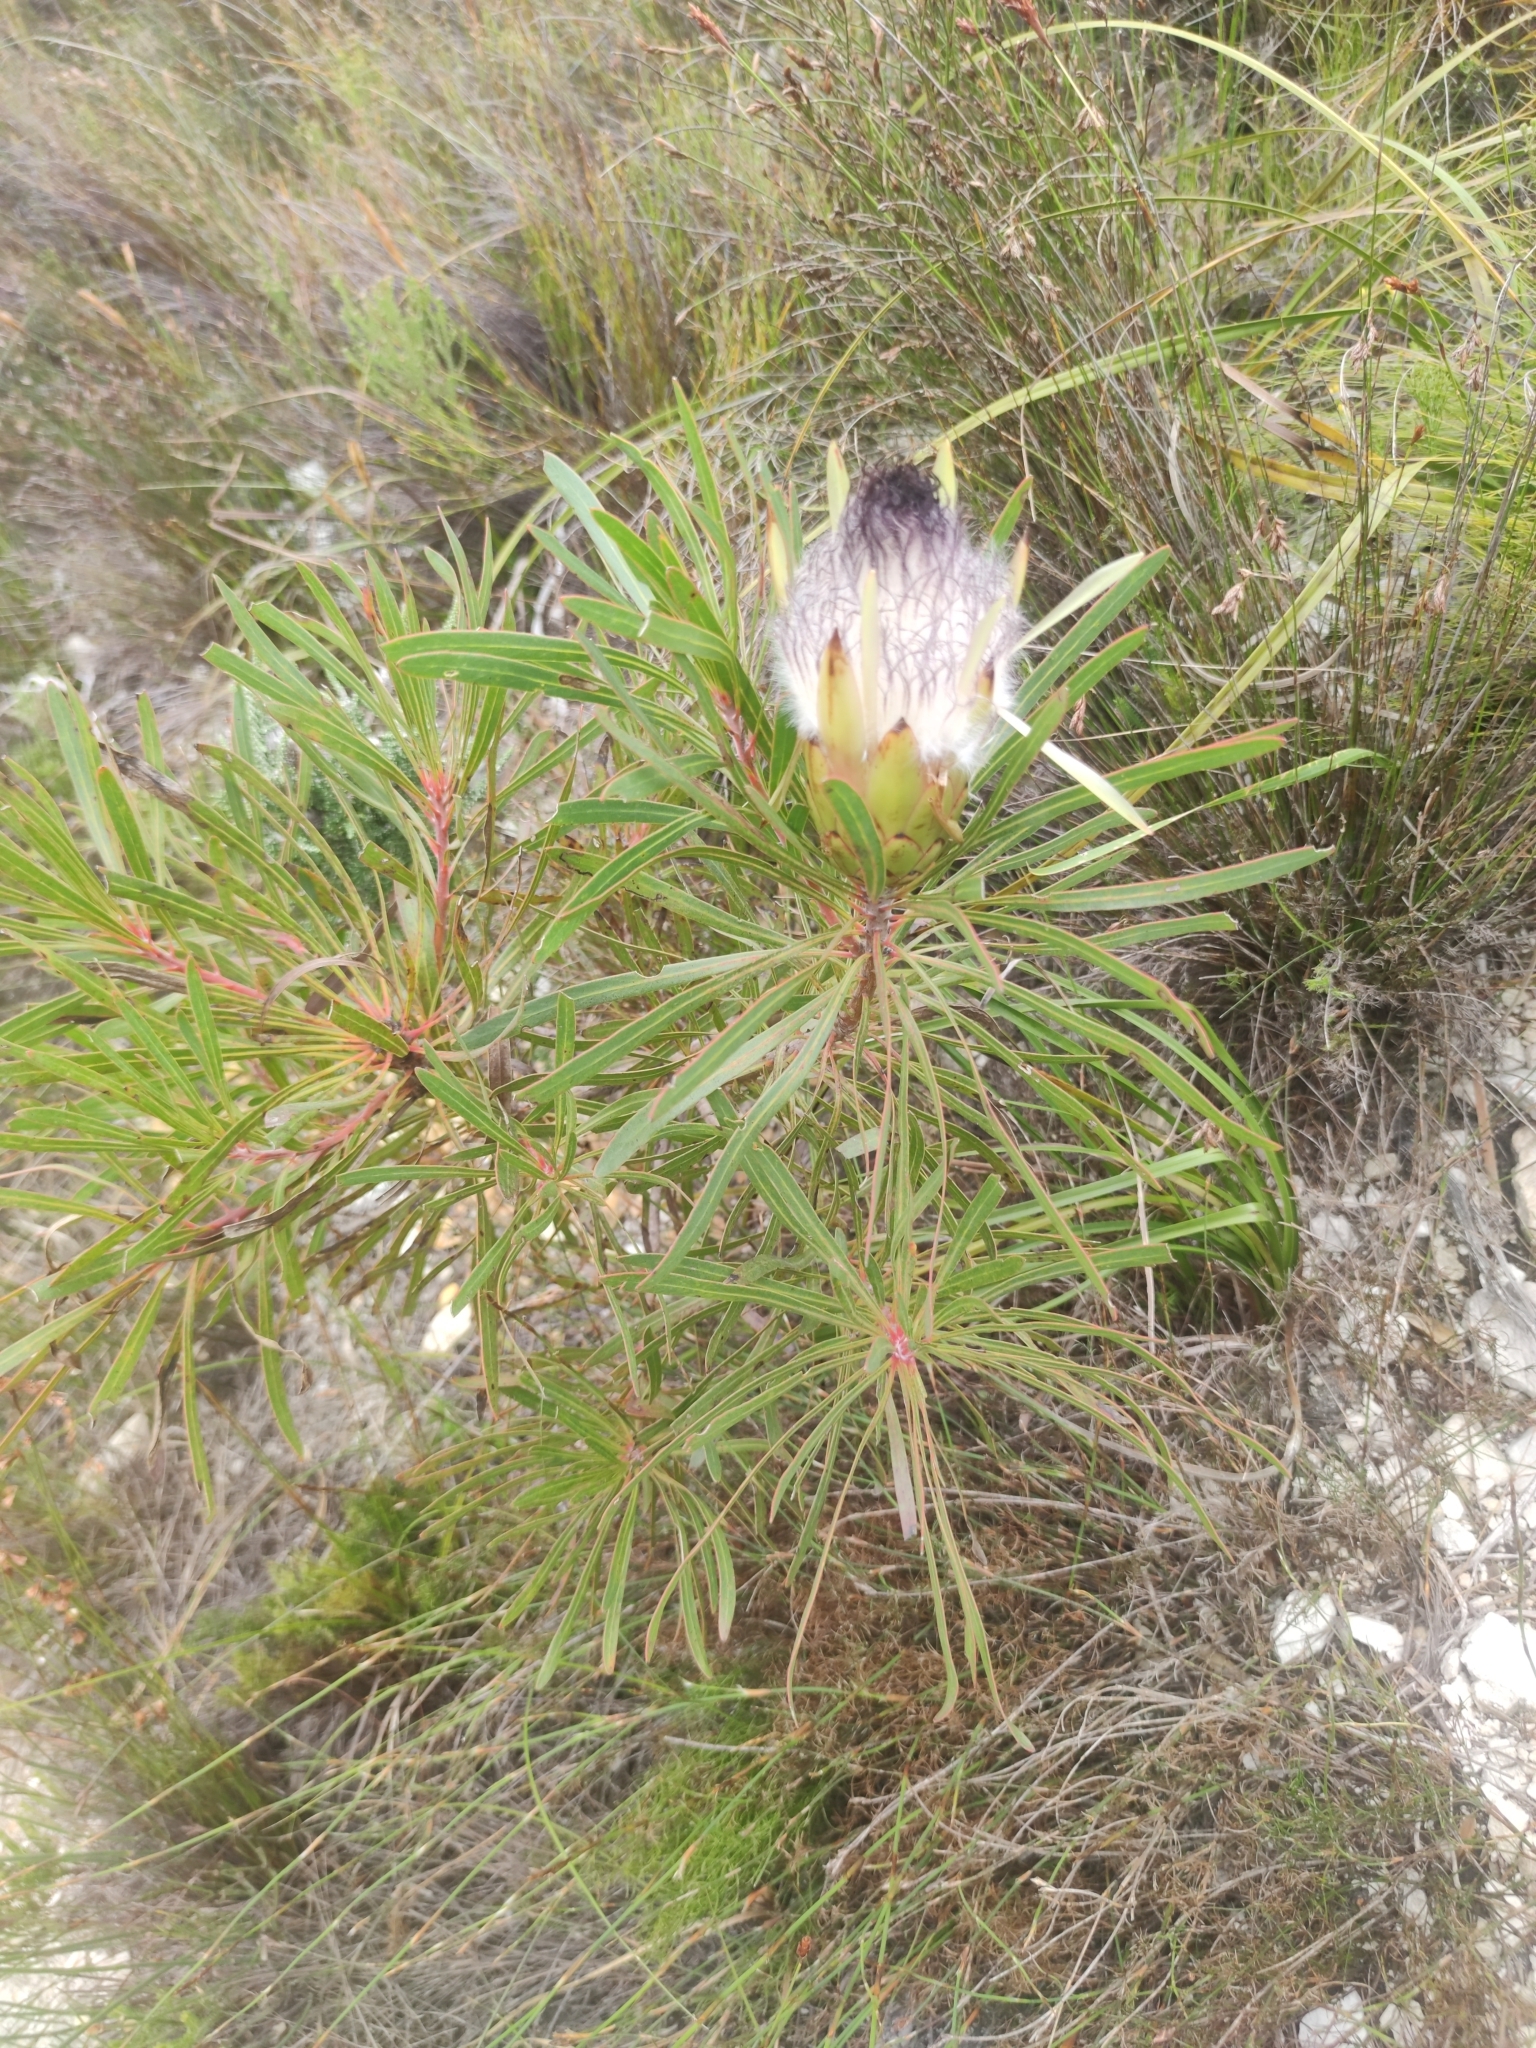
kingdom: Plantae
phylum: Tracheophyta
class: Magnoliopsida
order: Proteales
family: Proteaceae
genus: Protea
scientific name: Protea longifolia
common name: Long-leaf sugarbush
